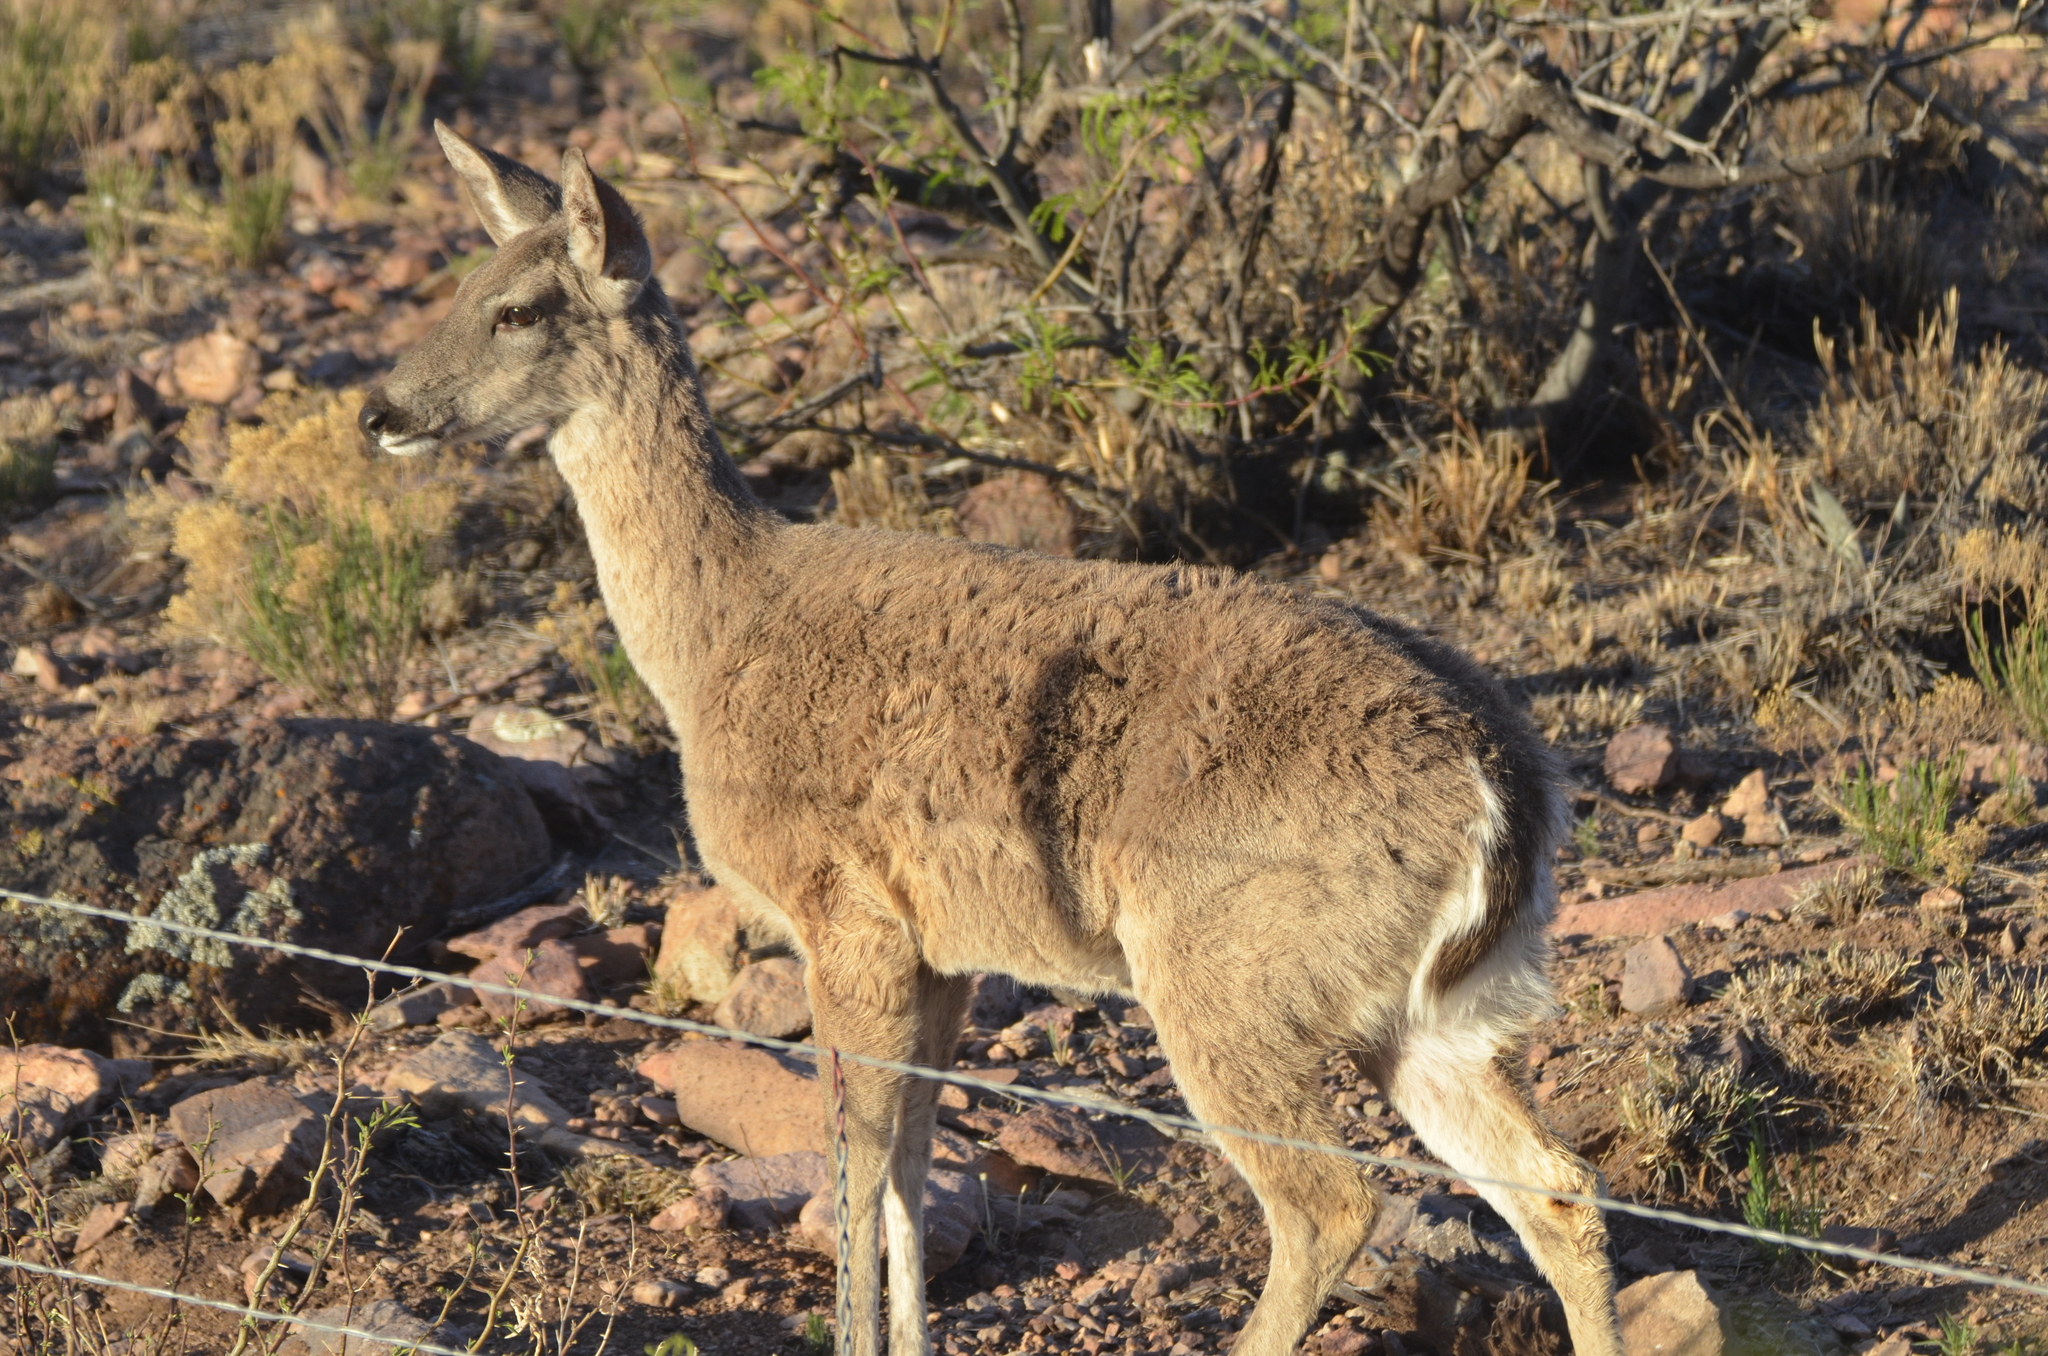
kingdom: Animalia
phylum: Chordata
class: Mammalia
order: Artiodactyla
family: Cervidae
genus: Odocoileus
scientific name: Odocoileus virginianus
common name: White-tailed deer
